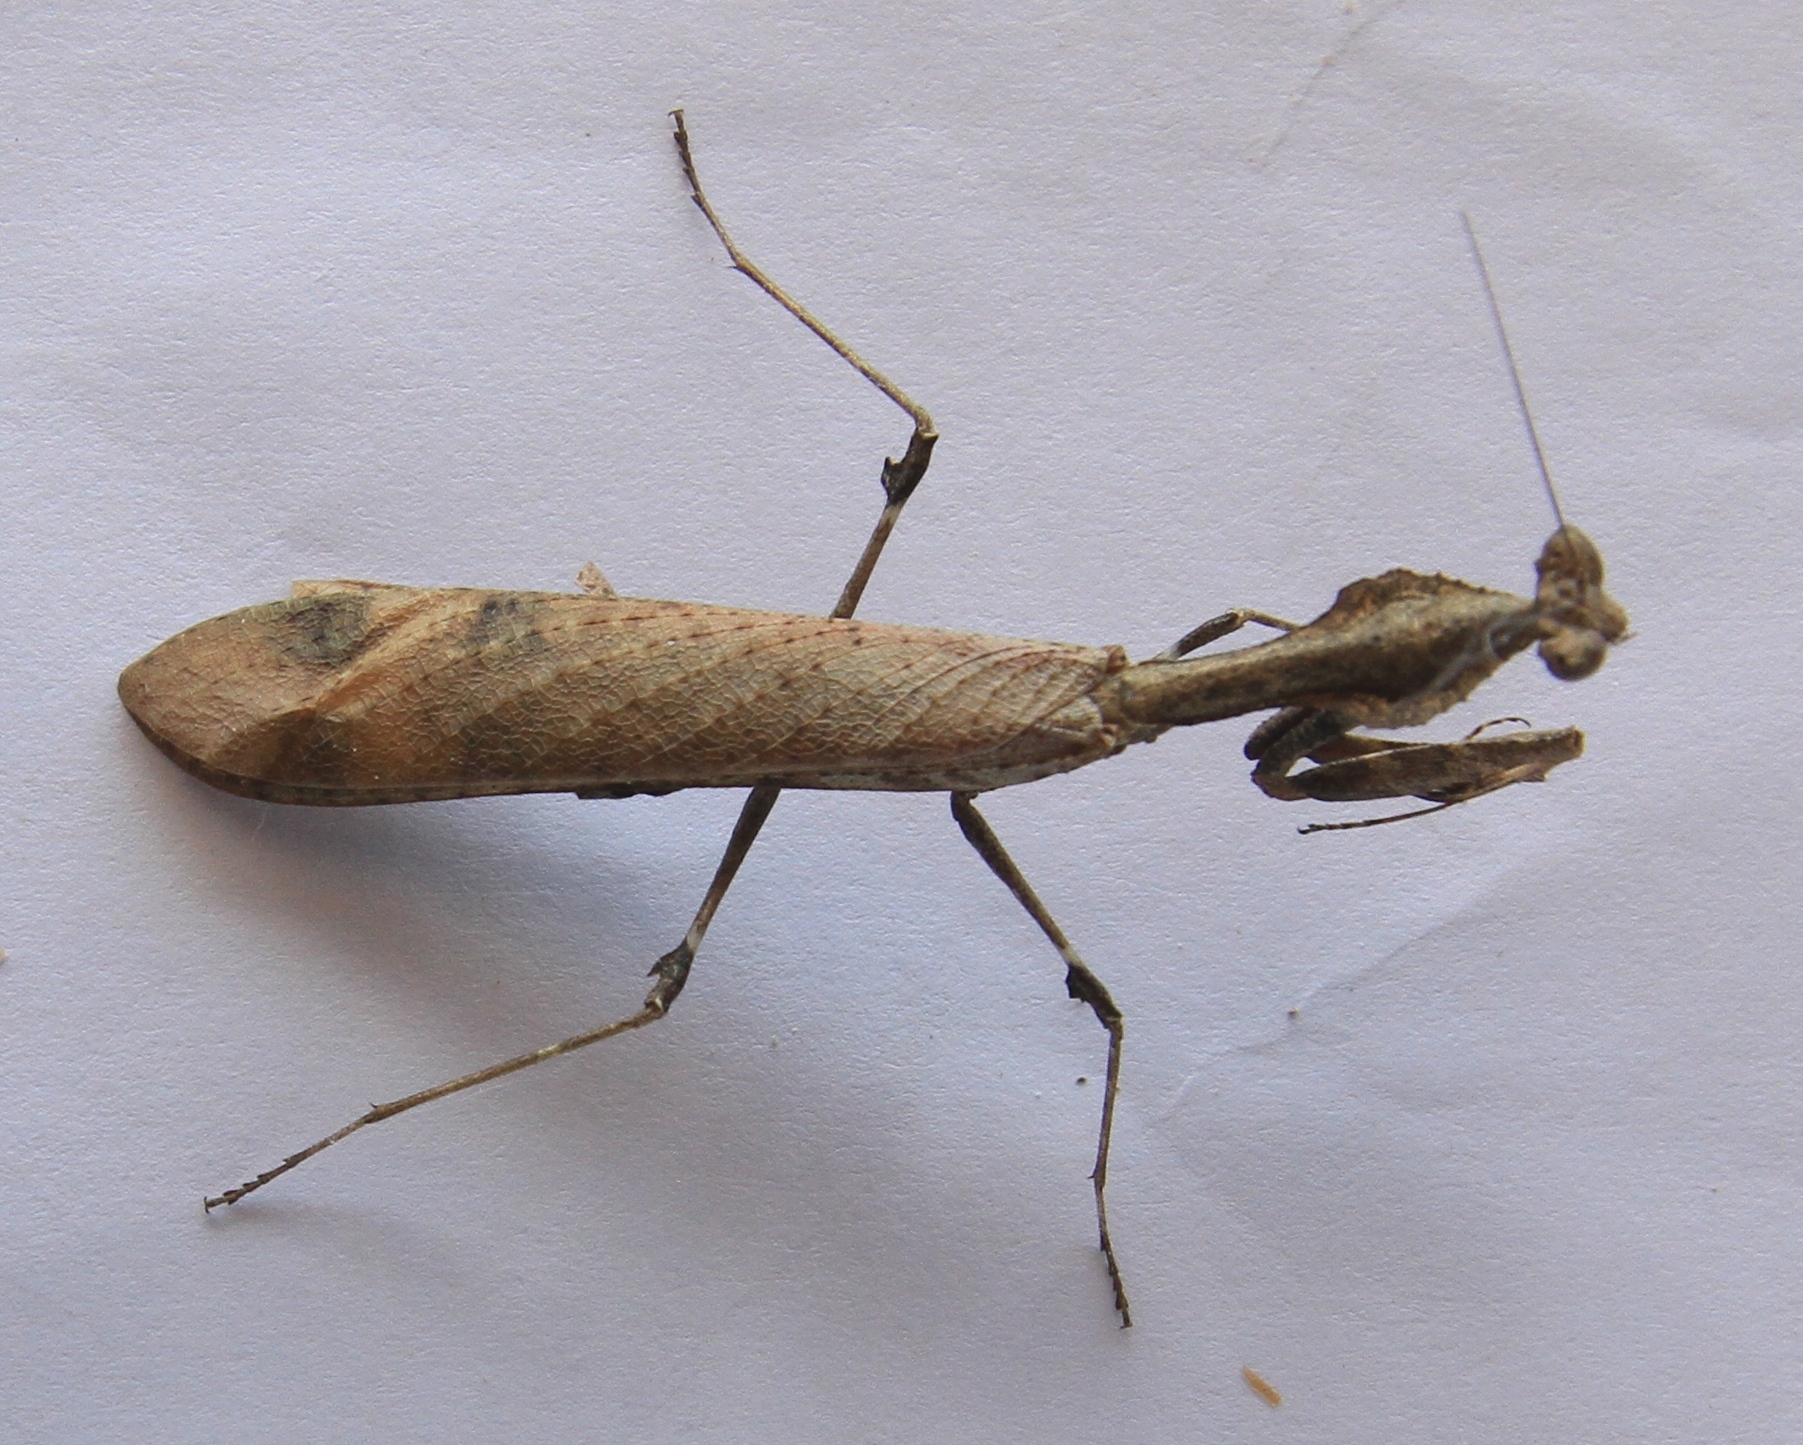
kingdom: Animalia
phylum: Arthropoda
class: Insecta
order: Mantodea
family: Epaphroditidae
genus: Epaphrodita
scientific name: Epaphrodita musarum
